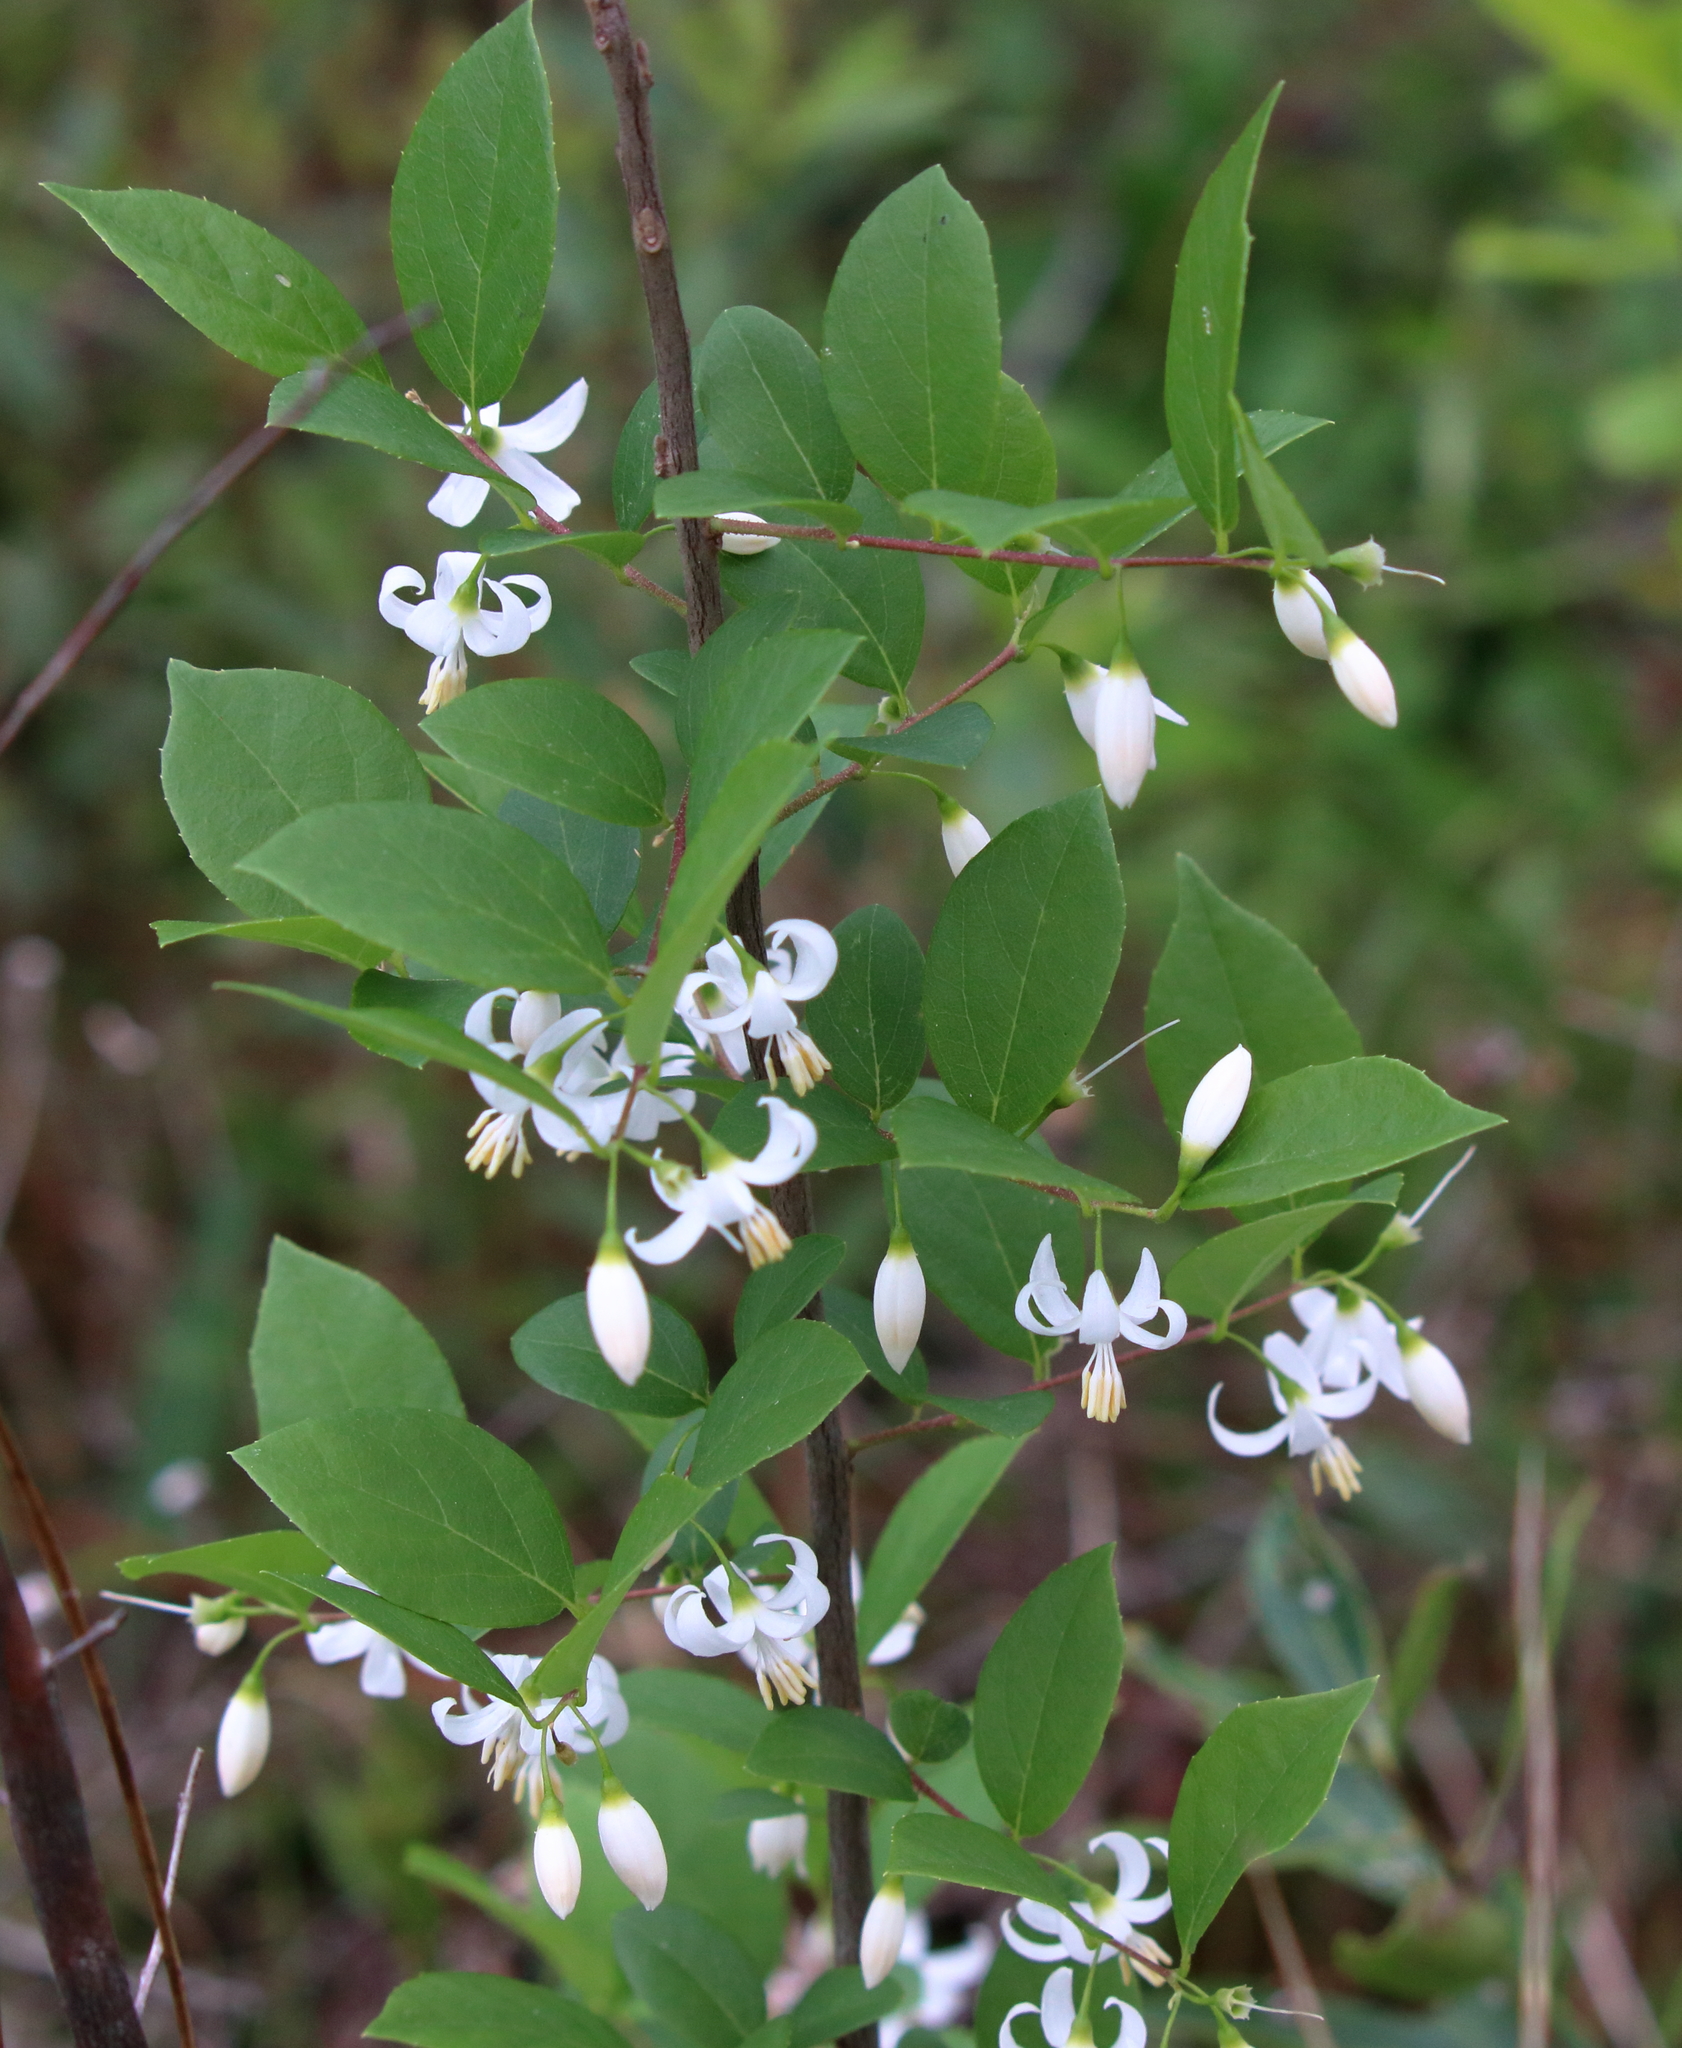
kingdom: Plantae
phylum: Tracheophyta
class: Magnoliopsida
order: Ericales
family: Styracaceae
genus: Styrax
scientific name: Styrax americanus
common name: American snowbell
